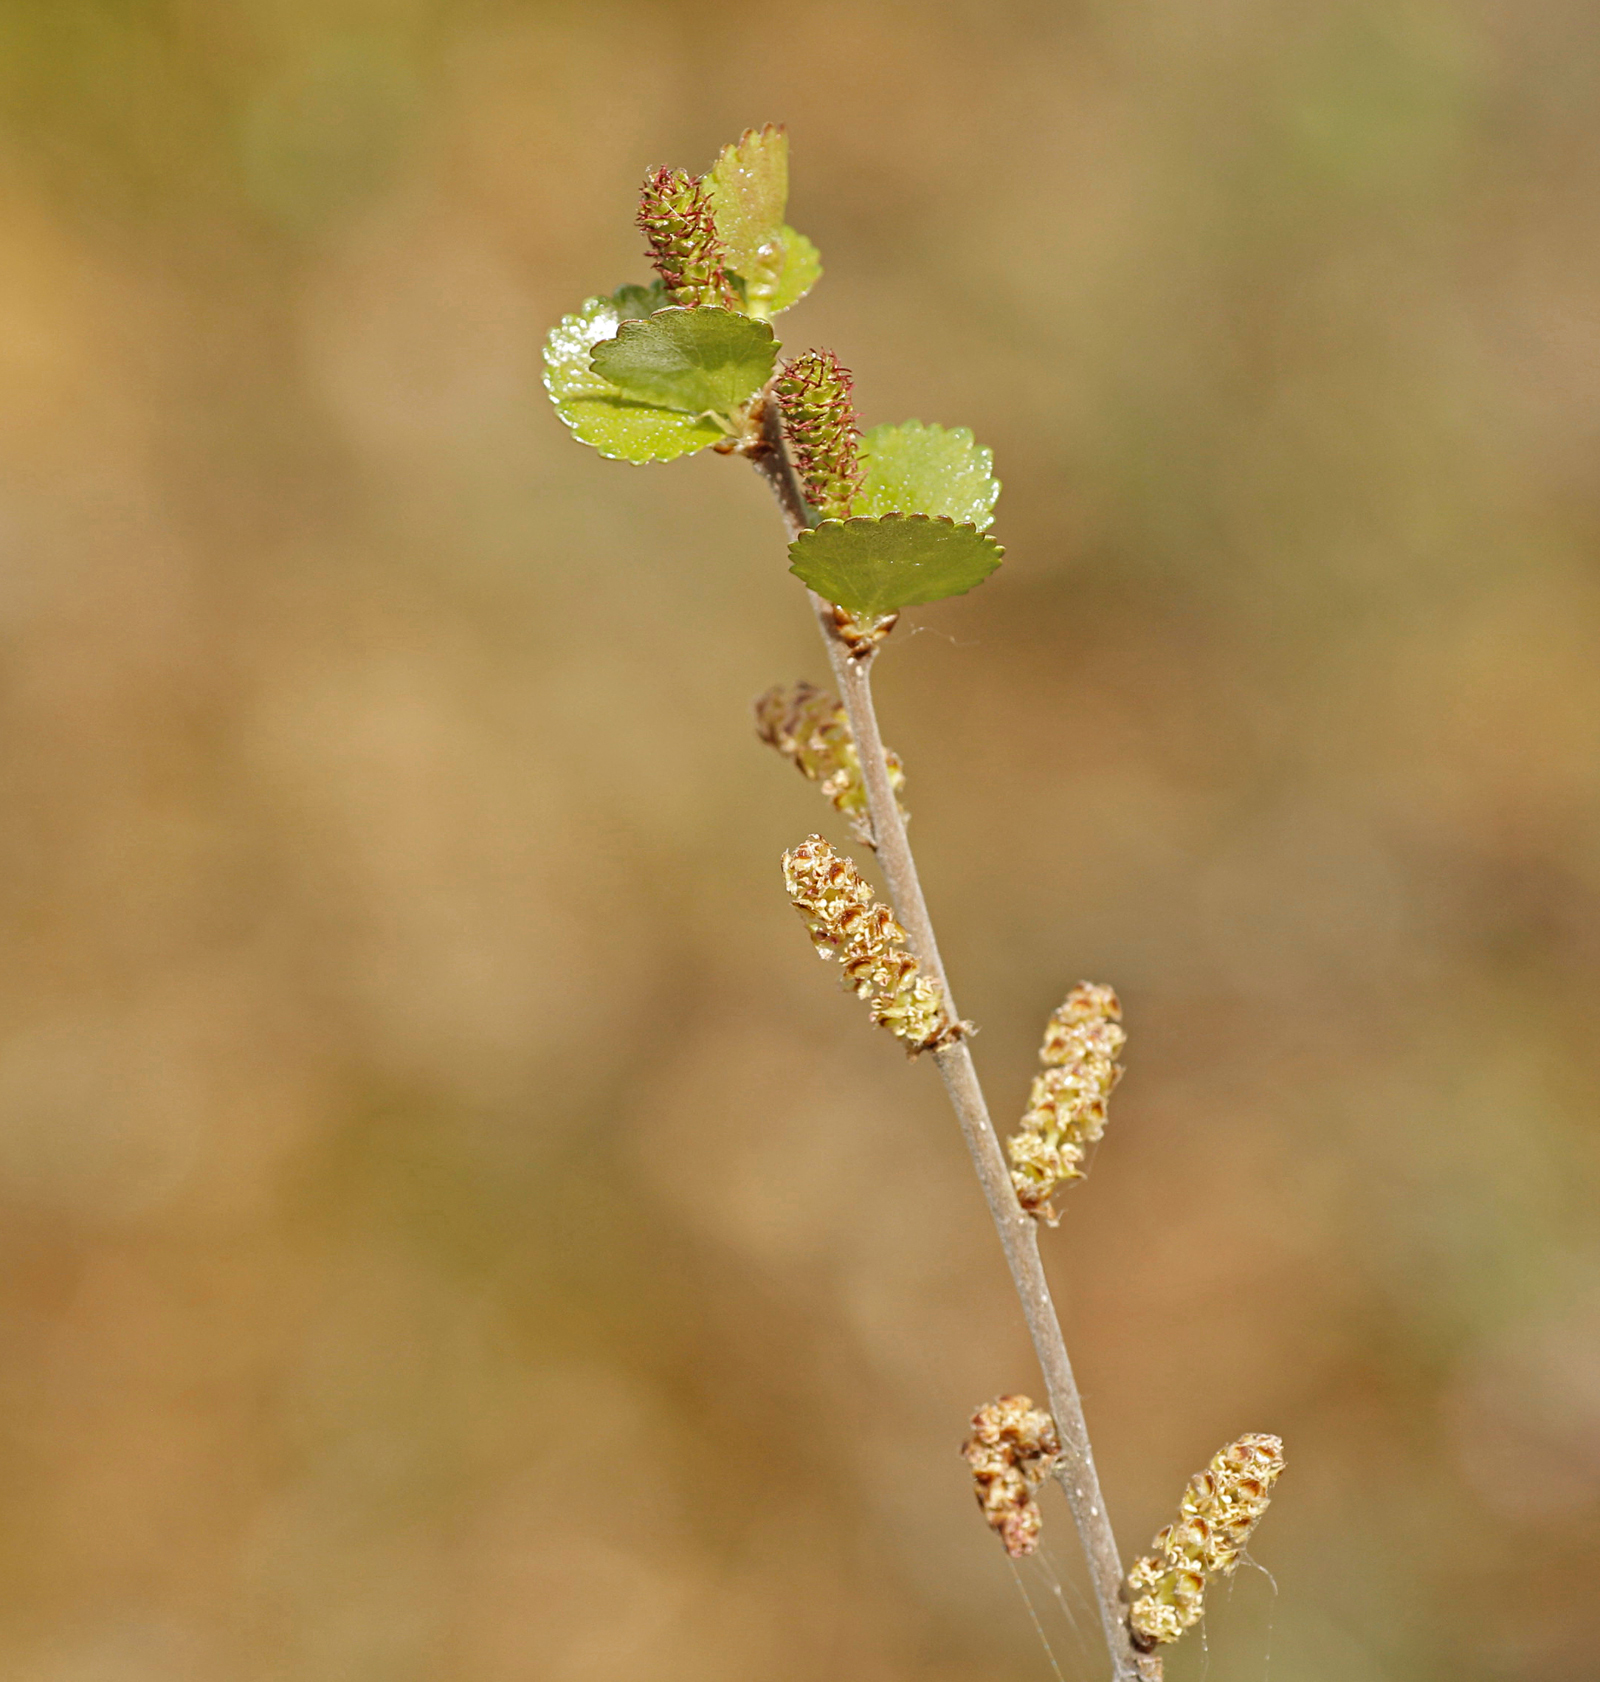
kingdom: Plantae
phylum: Tracheophyta
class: Magnoliopsida
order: Fagales
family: Betulaceae
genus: Betula
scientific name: Betula nana
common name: Arctic dwarf birch
